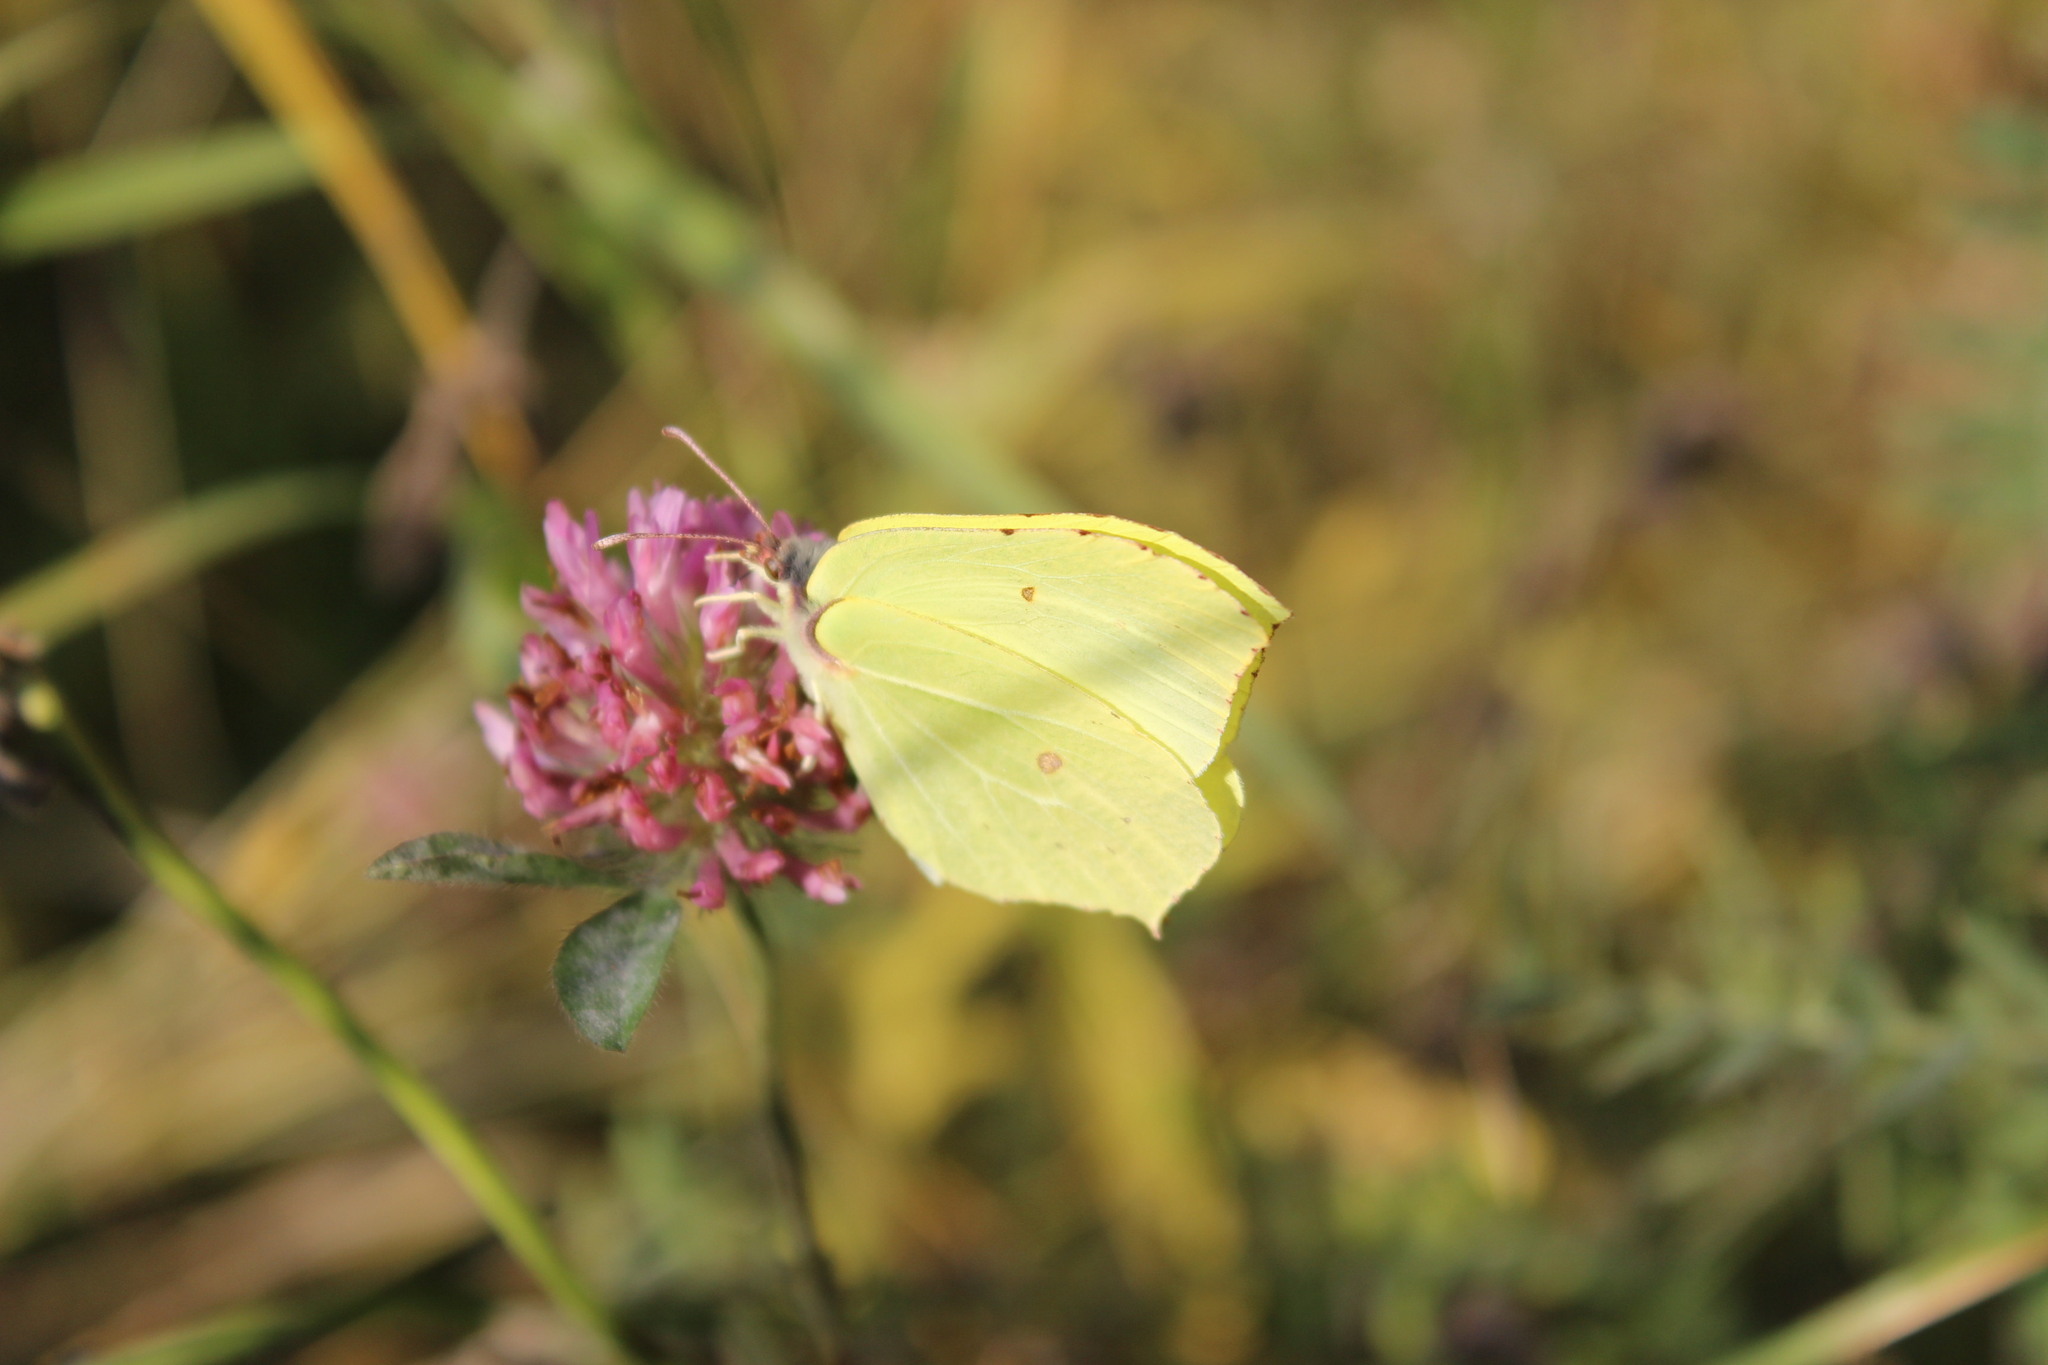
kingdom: Animalia
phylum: Arthropoda
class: Insecta
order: Lepidoptera
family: Pieridae
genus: Gonepteryx
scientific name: Gonepteryx rhamni
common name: Brimstone
